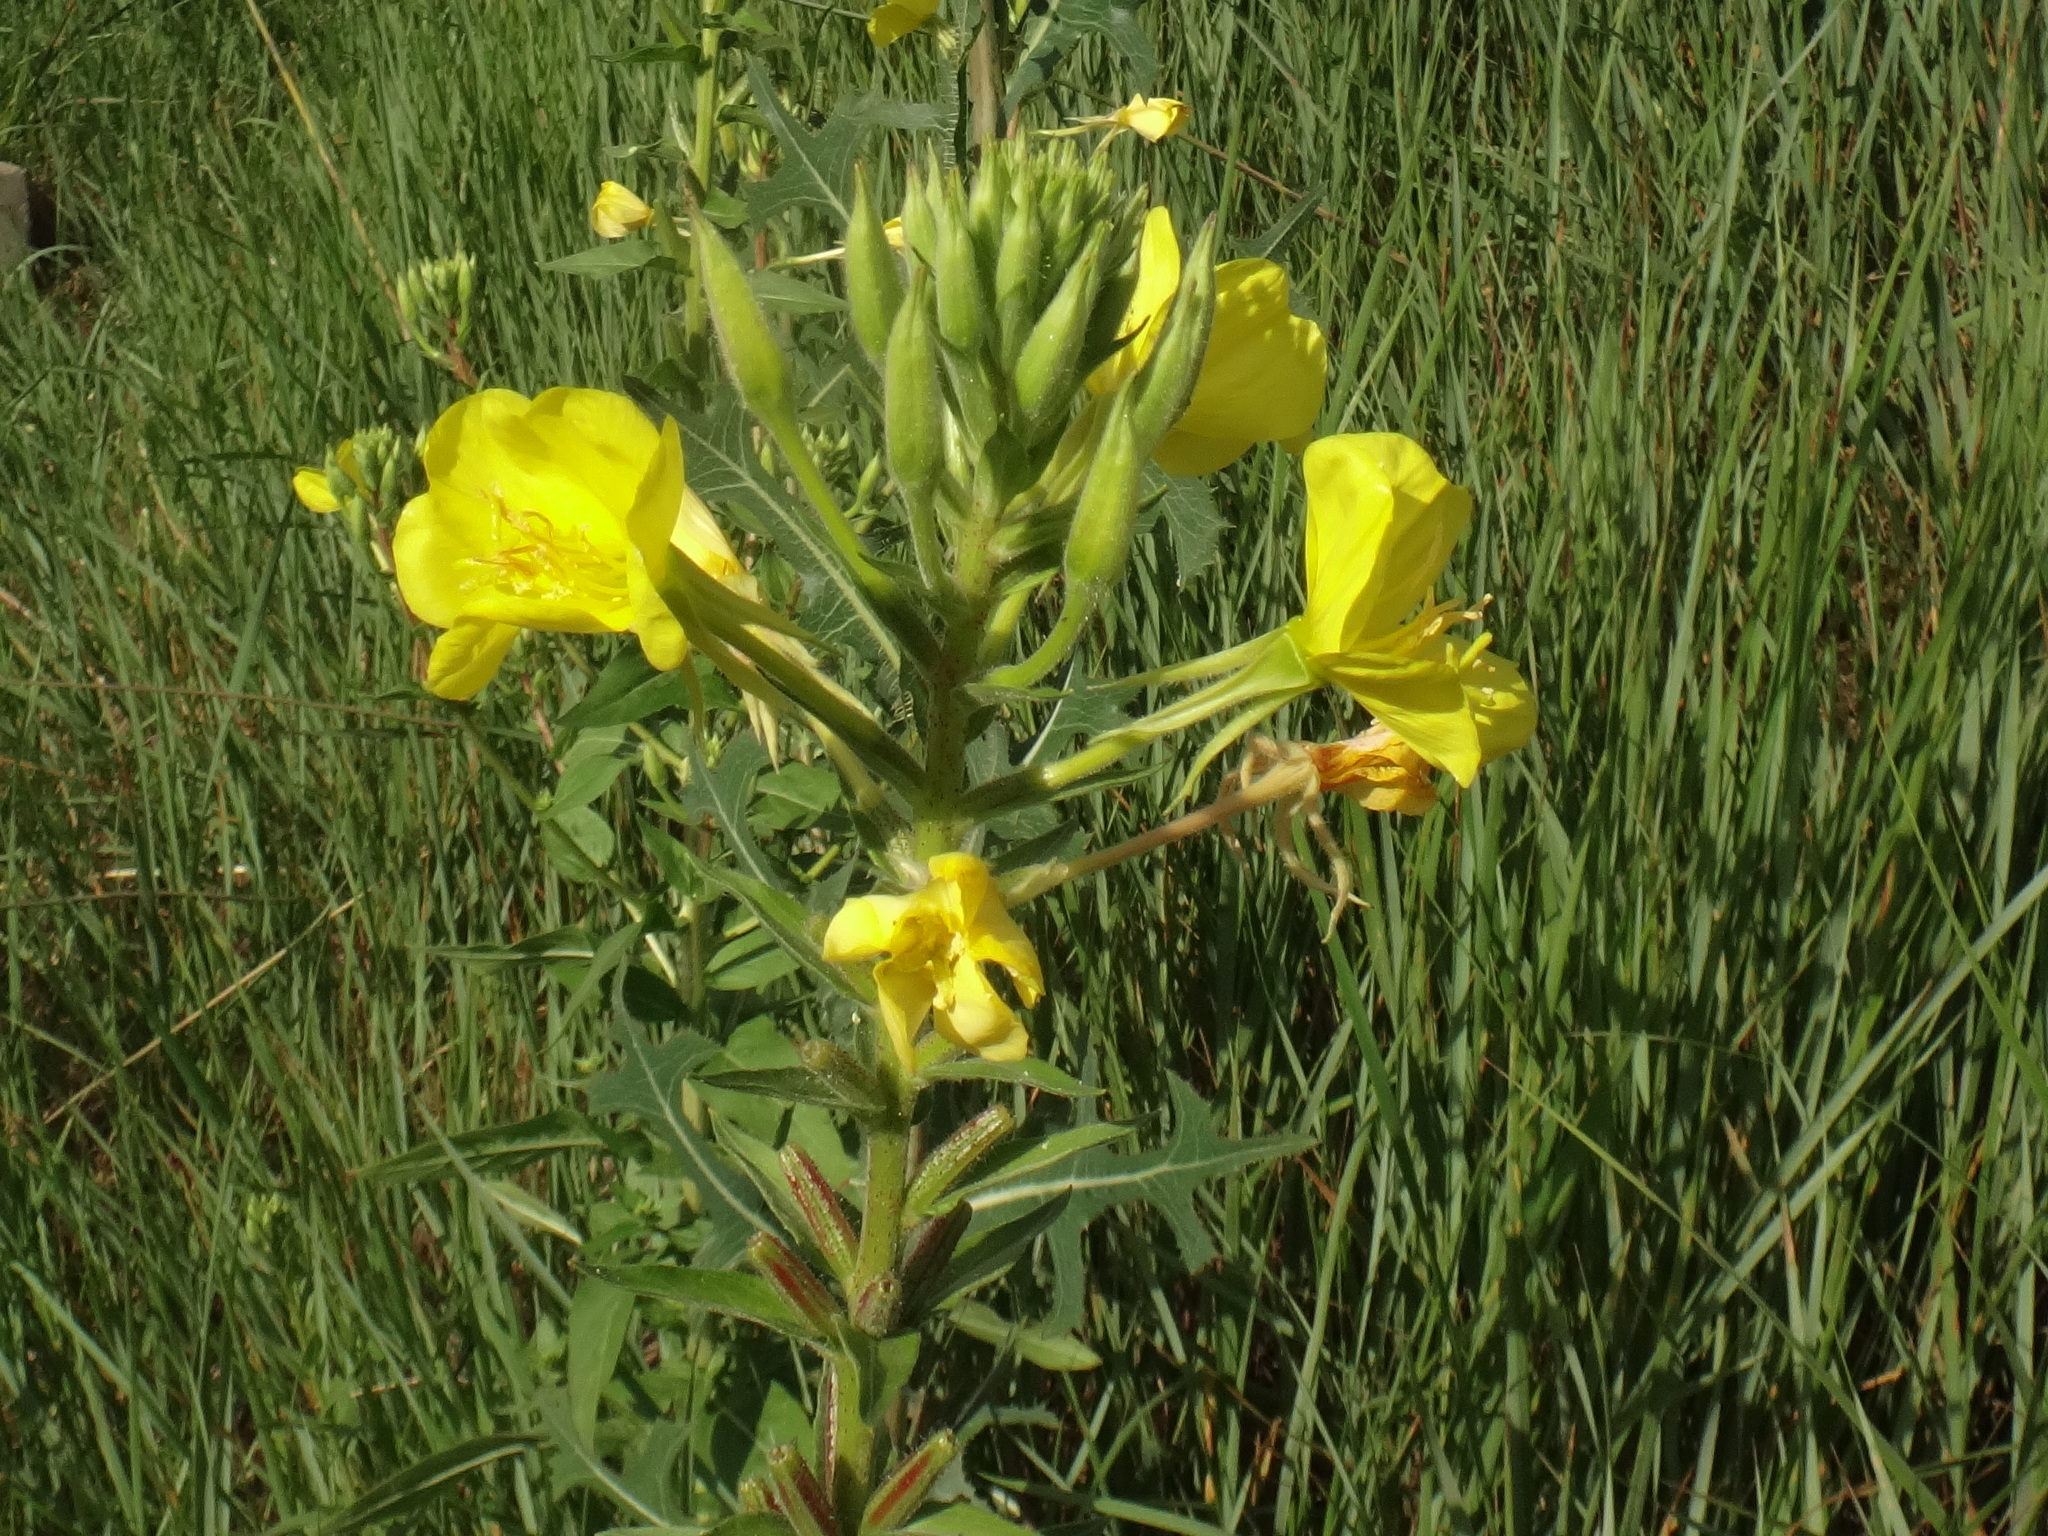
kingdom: Plantae
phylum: Tracheophyta
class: Magnoliopsida
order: Myrtales
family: Onagraceae
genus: Oenothera
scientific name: Oenothera biennis
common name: Common evening-primrose
